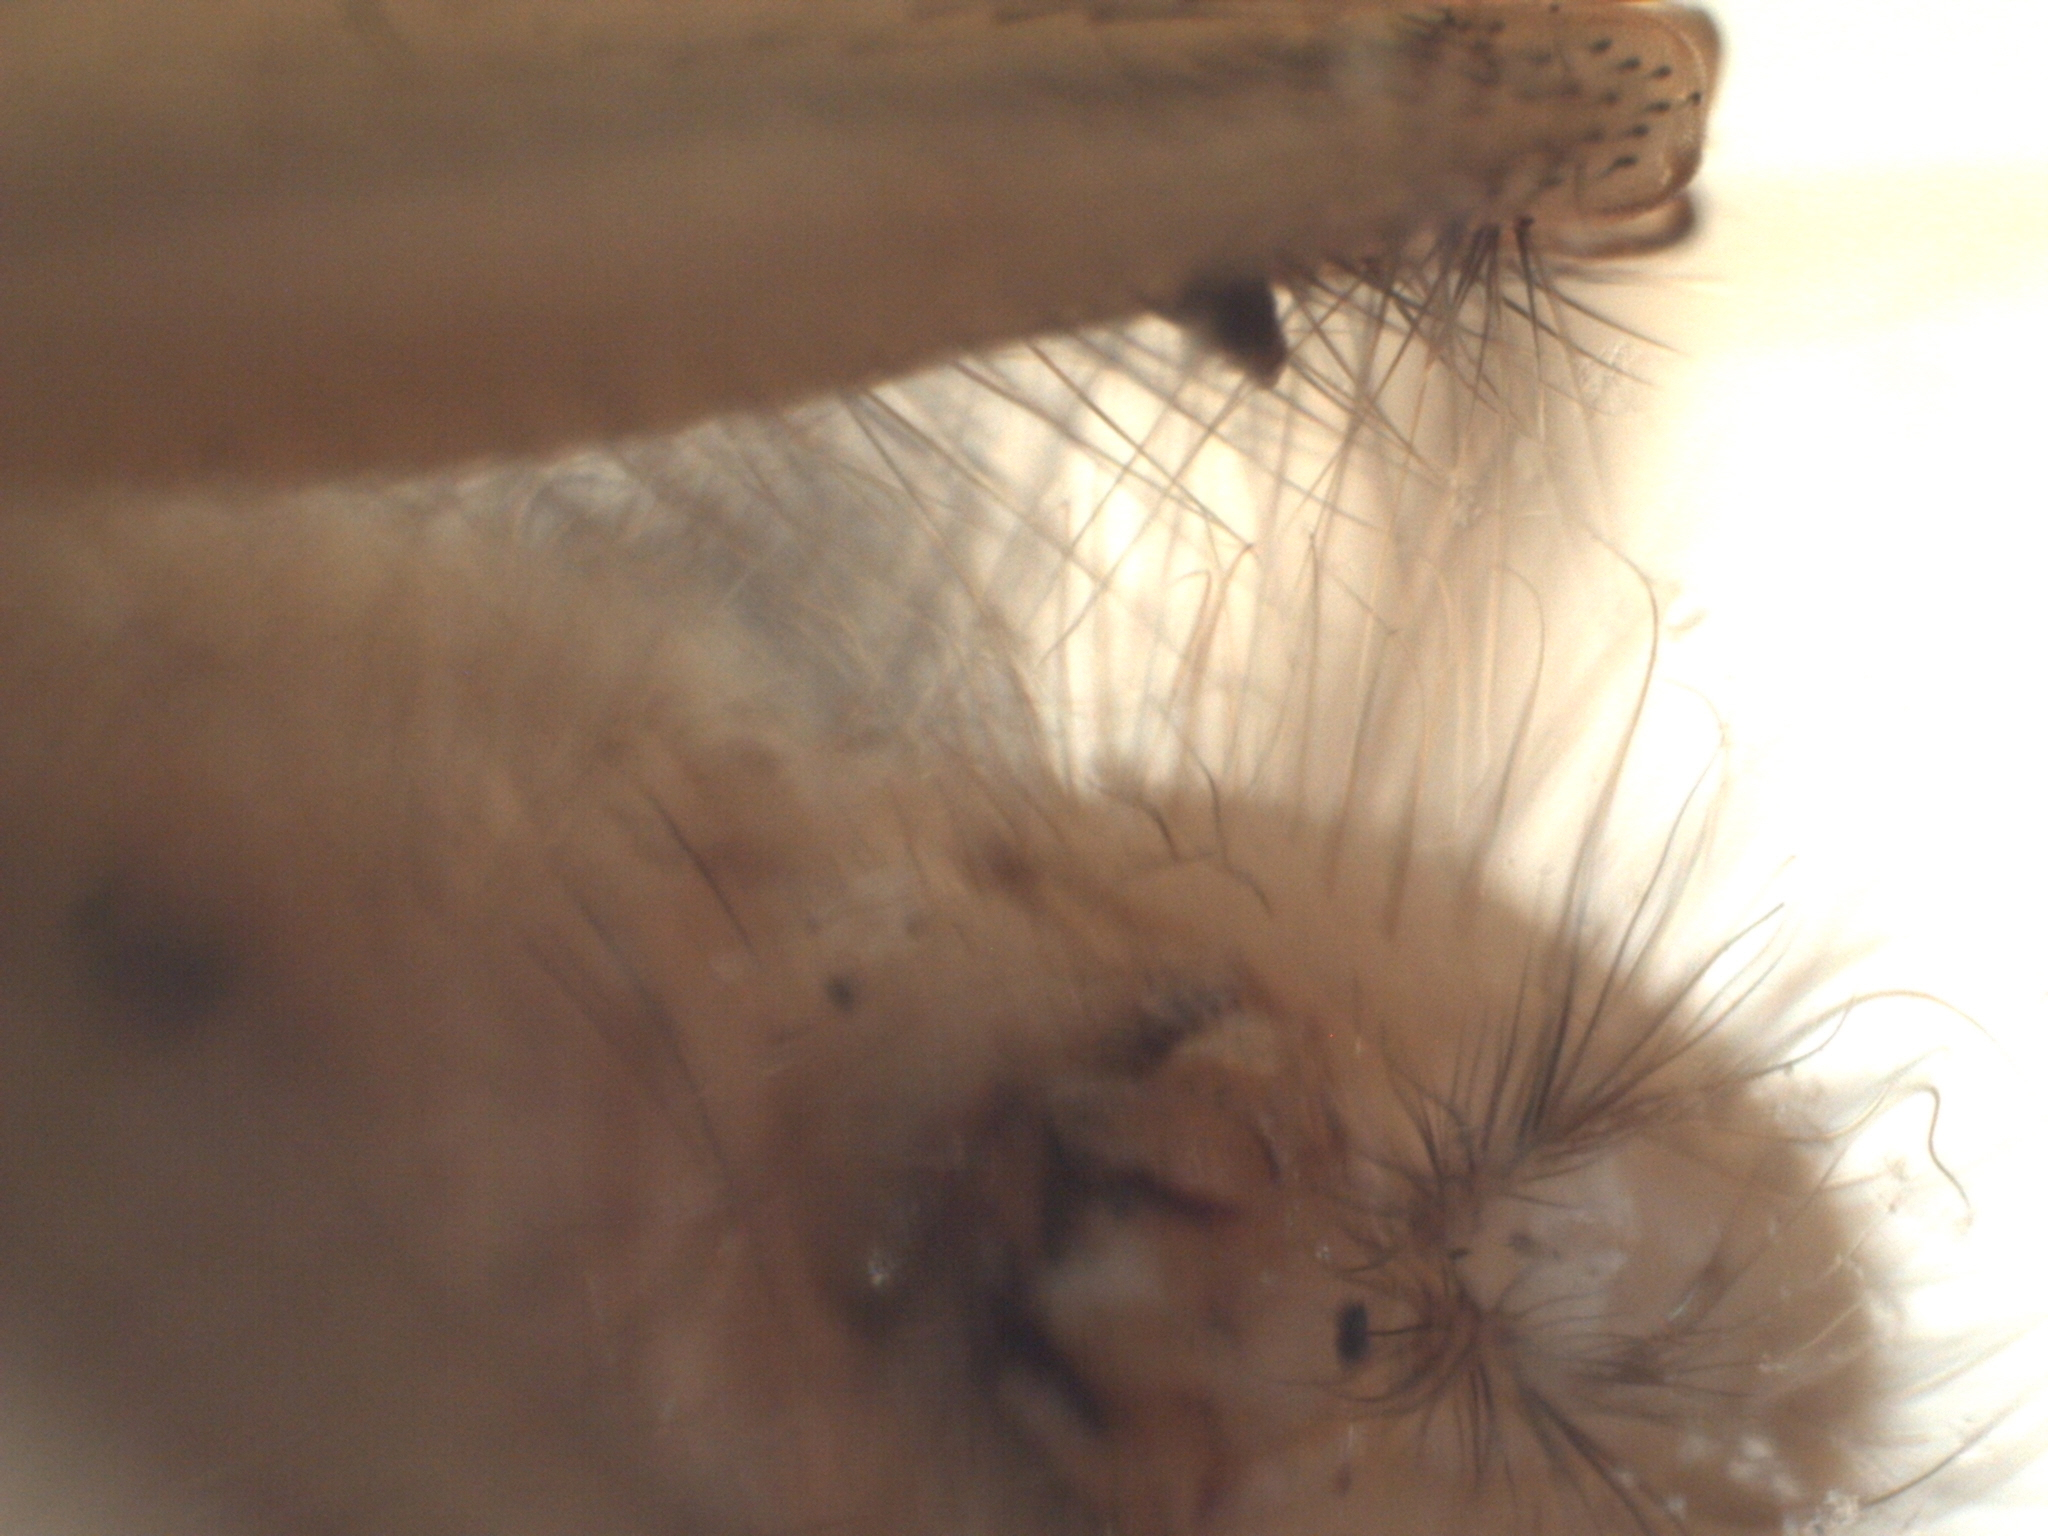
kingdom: Animalia
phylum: Arthropoda
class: Insecta
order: Diptera
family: Heleomyzidae
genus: Suillia
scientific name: Suillia longipennis
